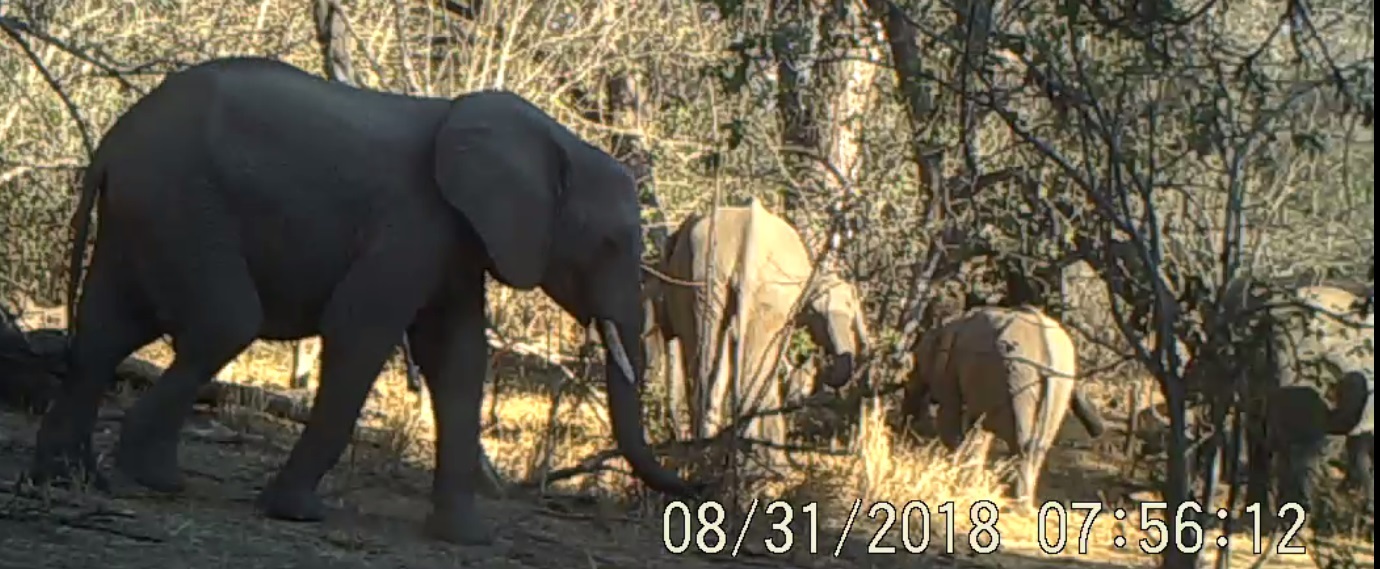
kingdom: Animalia
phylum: Chordata
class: Mammalia
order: Proboscidea
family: Elephantidae
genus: Loxodonta
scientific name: Loxodonta africana
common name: African elephant
